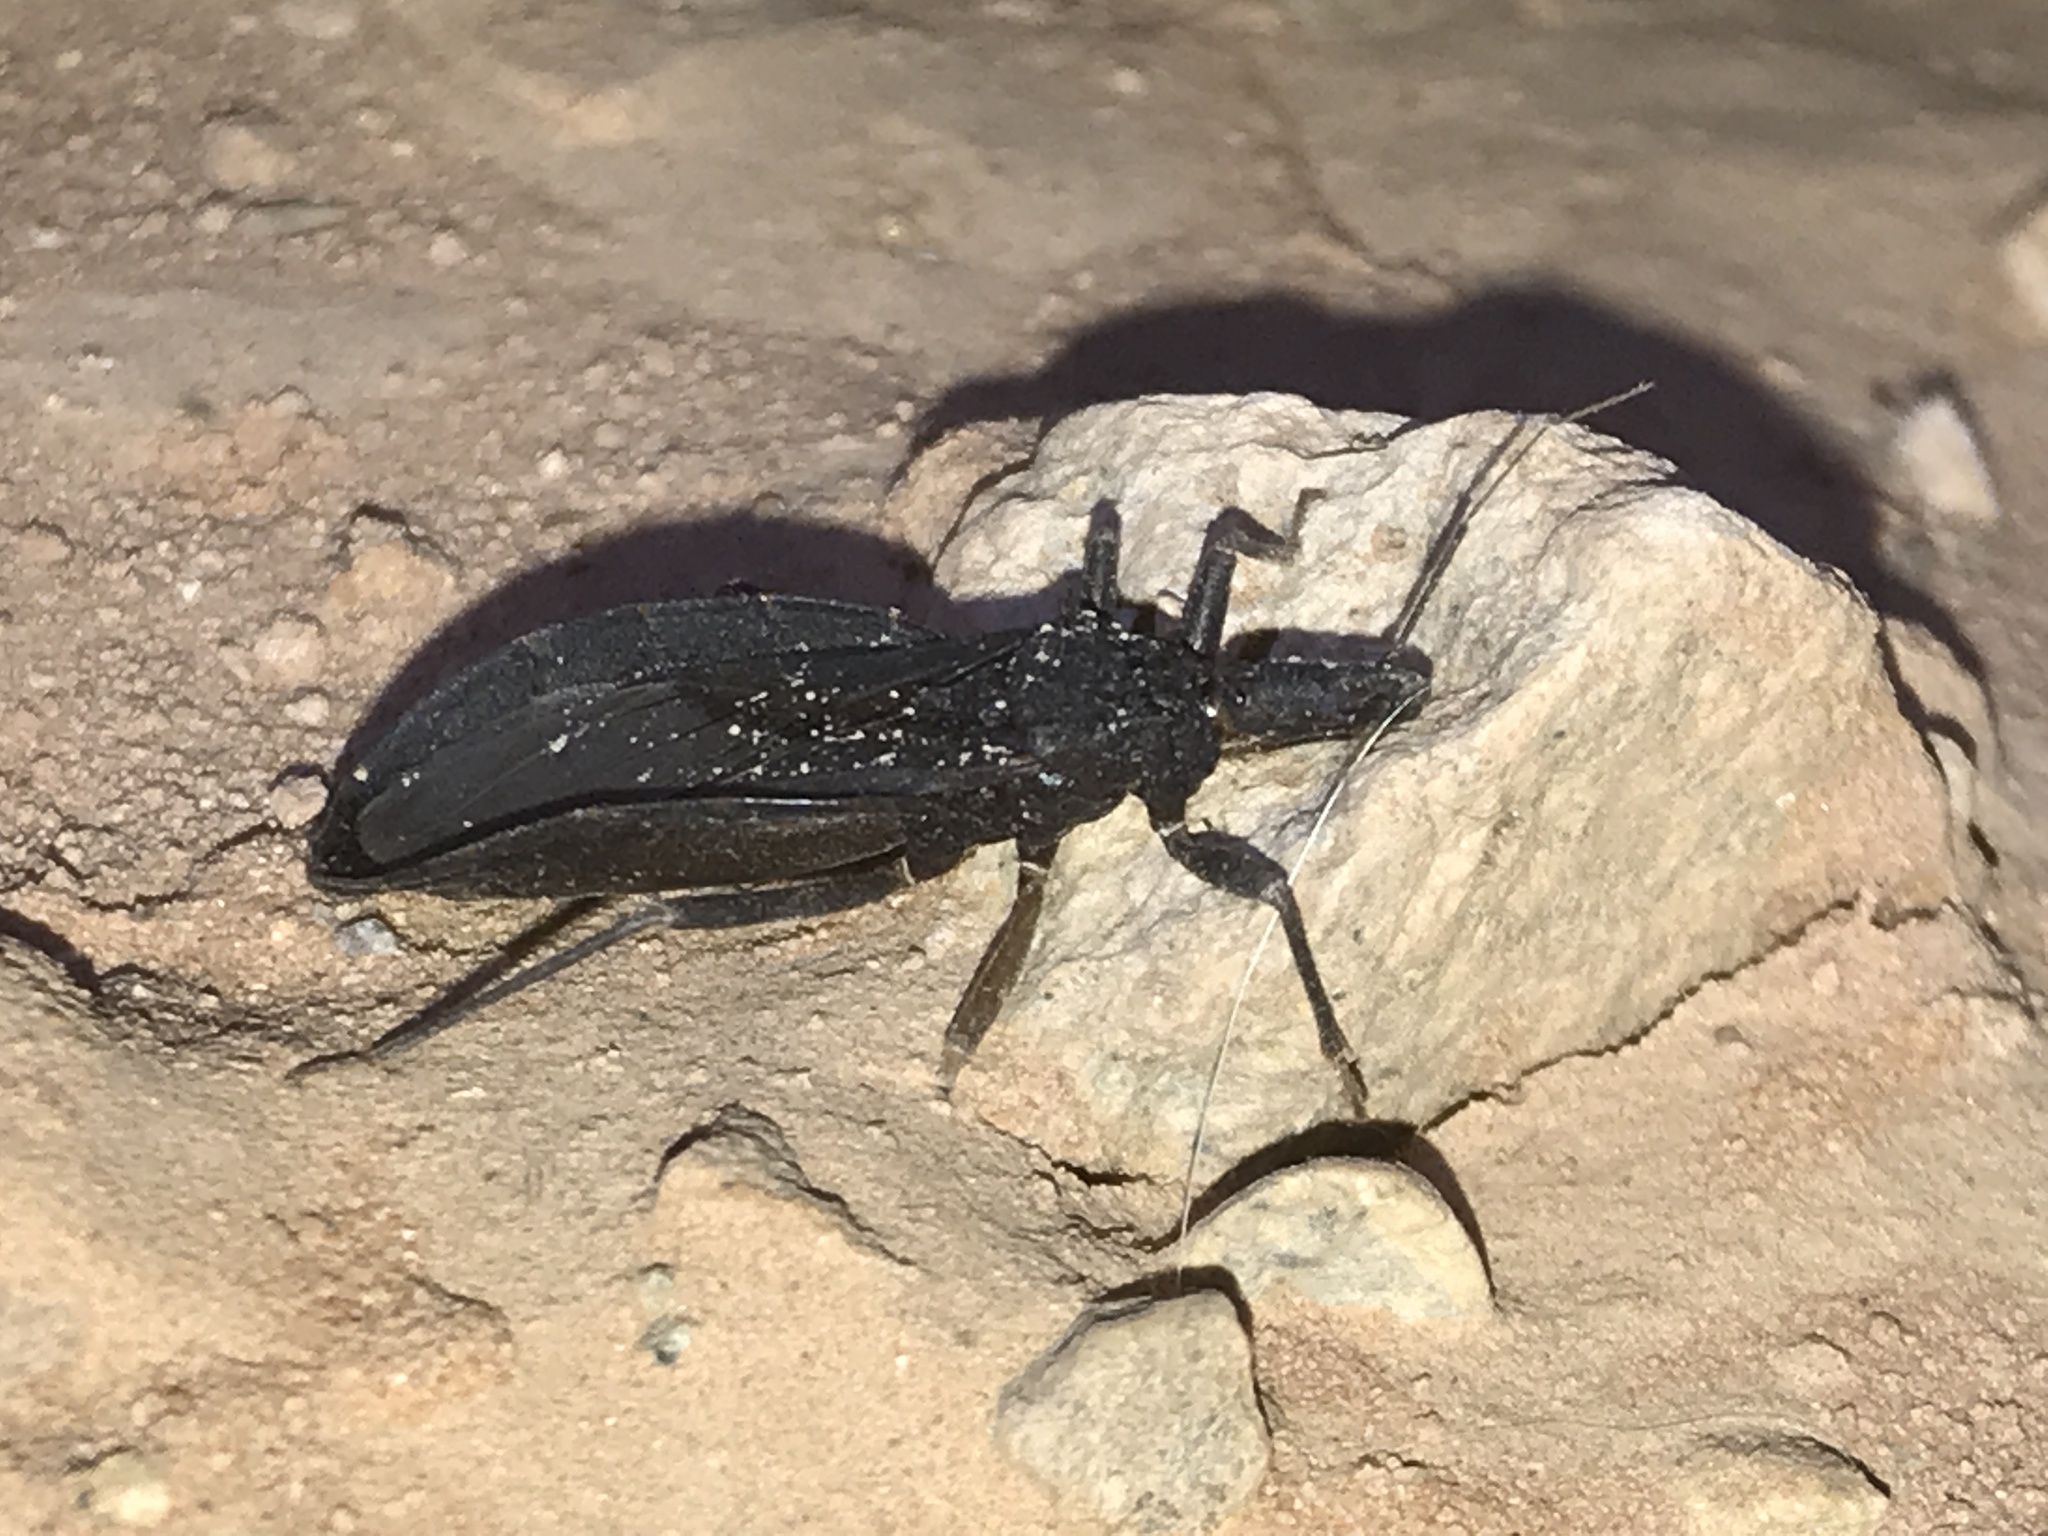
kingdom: Animalia
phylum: Arthropoda
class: Insecta
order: Hemiptera
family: Reduviidae
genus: Triatoma
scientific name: Triatoma protracta
